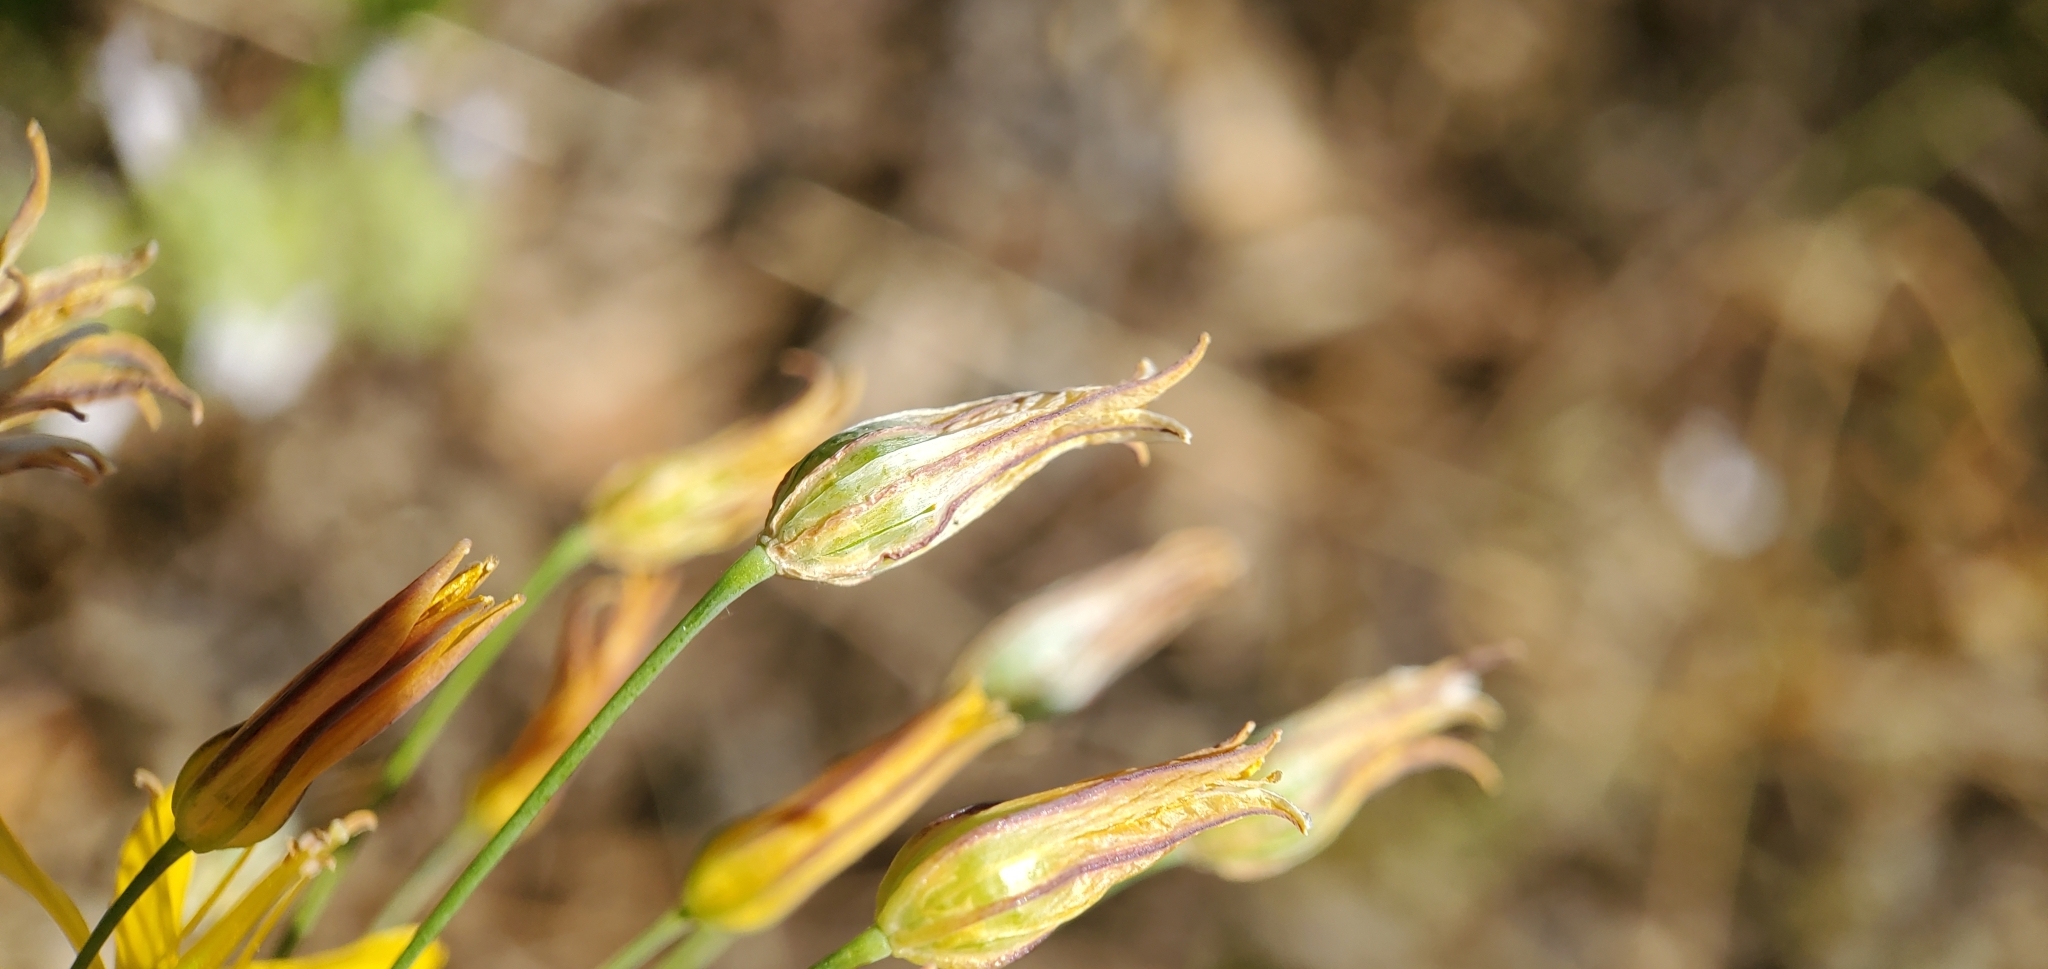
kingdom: Plantae
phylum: Tracheophyta
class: Liliopsida
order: Asparagales
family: Asparagaceae
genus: Bloomeria
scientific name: Bloomeria crocea
